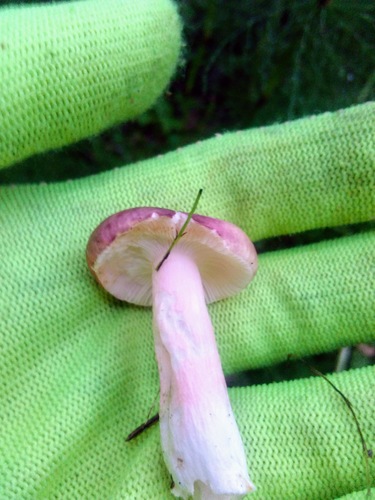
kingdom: Fungi
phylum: Basidiomycota
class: Agaricomycetes
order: Russulales
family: Russulaceae
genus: Russula
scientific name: Russula sanguinea
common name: Bloody brittlegill
